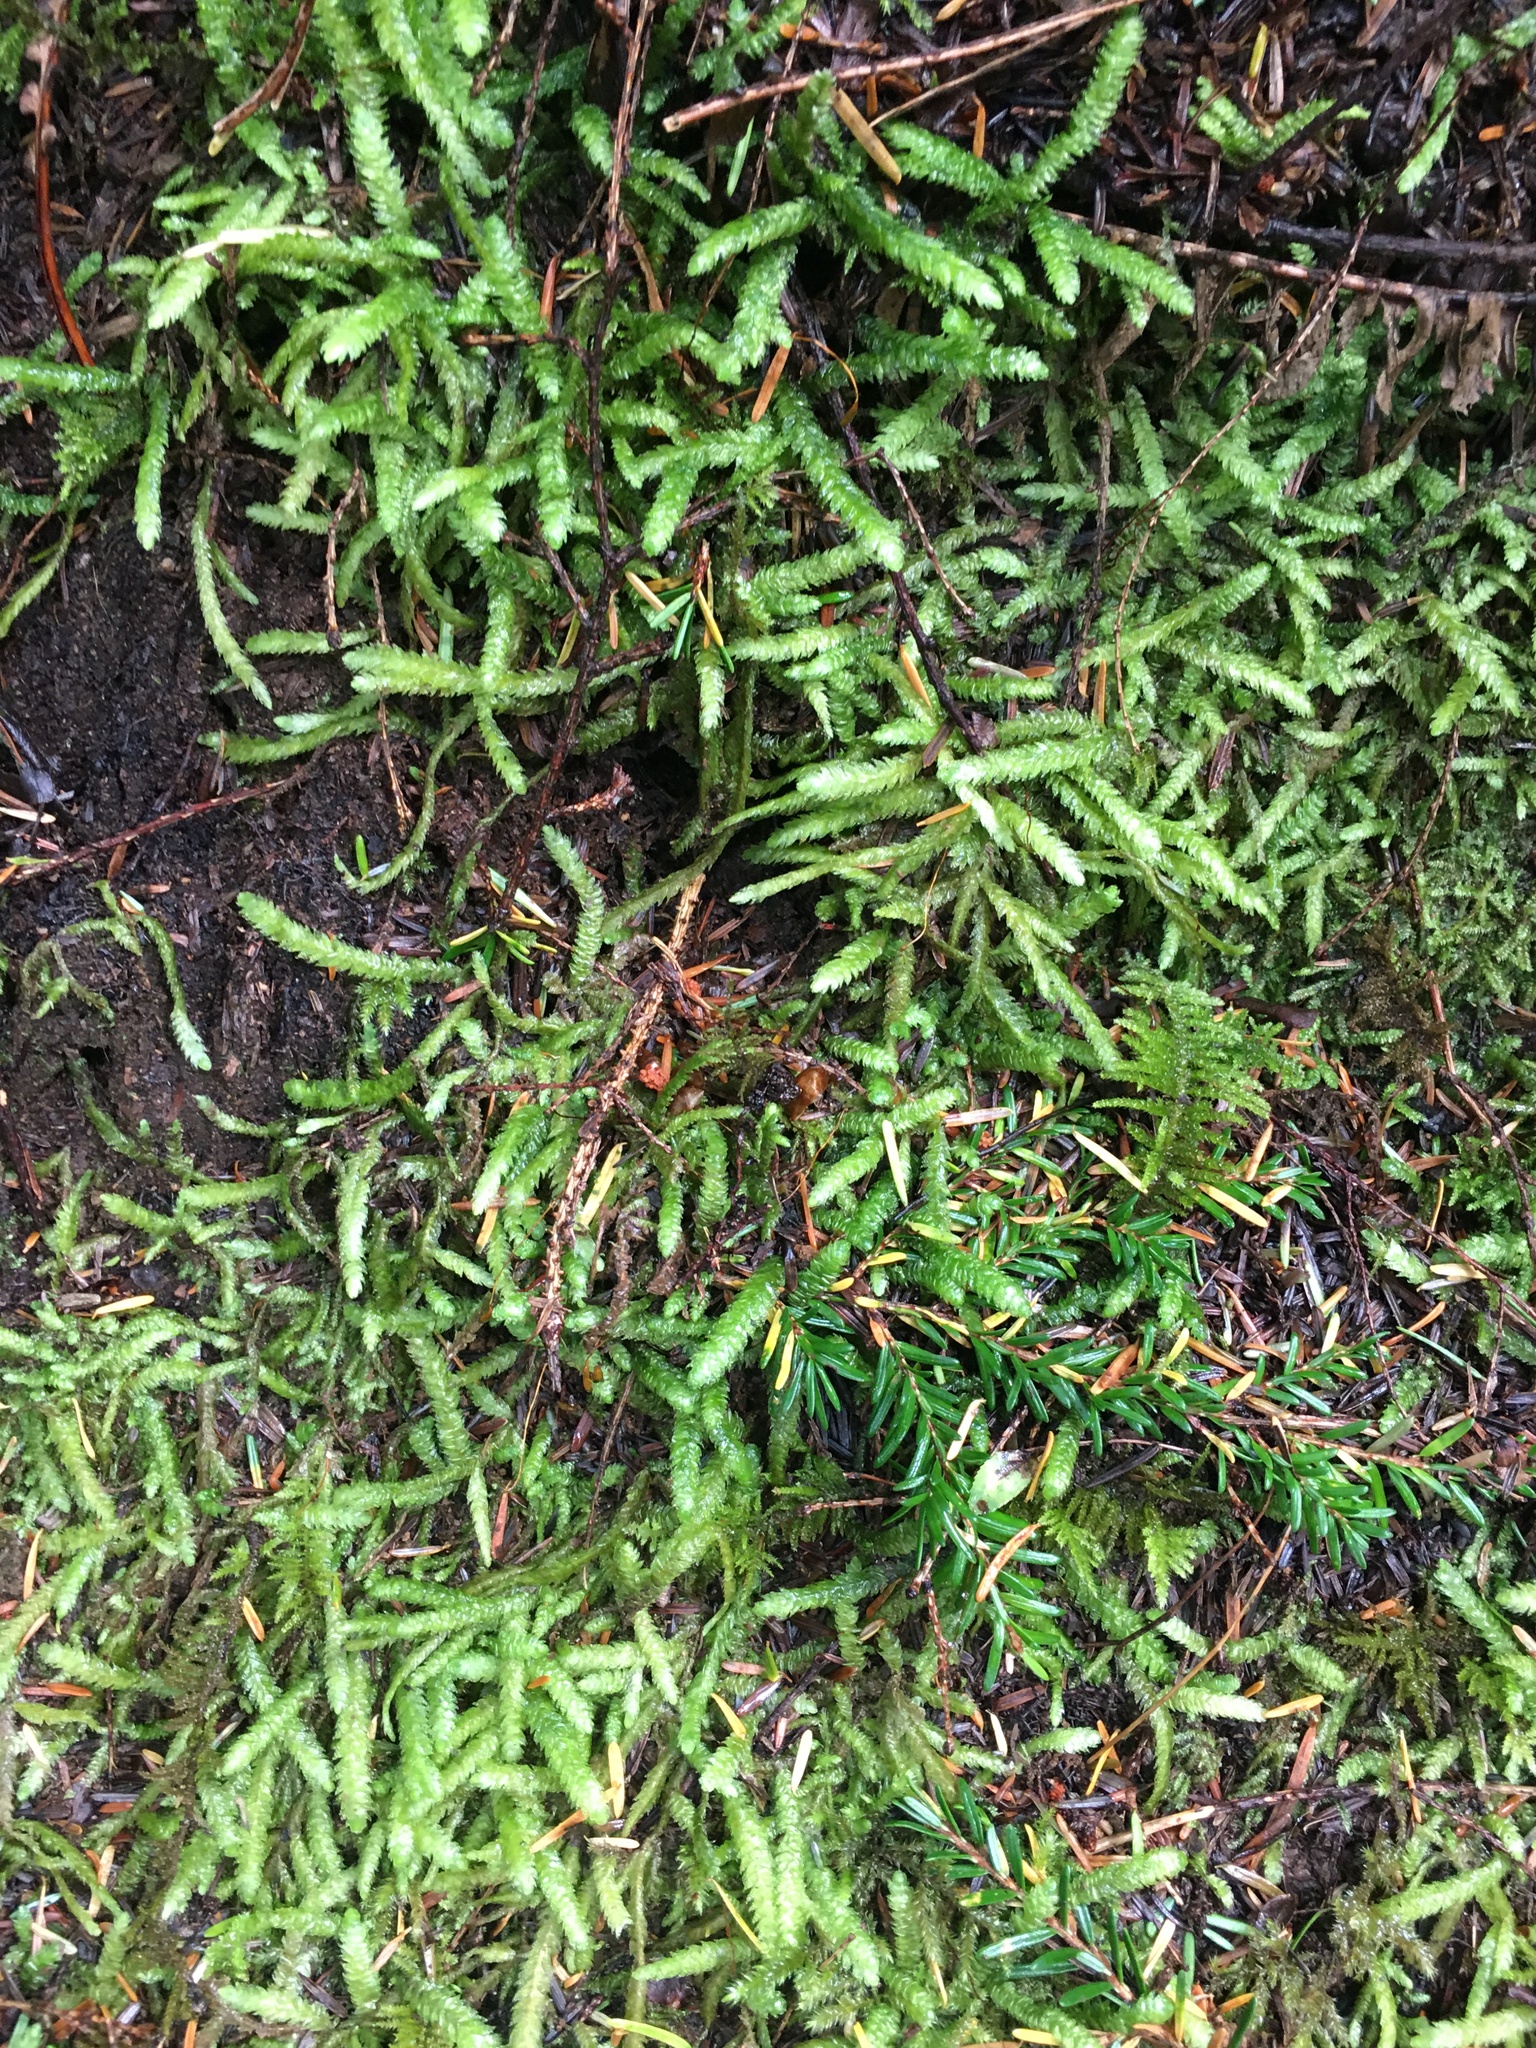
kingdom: Plantae
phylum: Bryophyta
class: Bryopsida
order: Hypnales
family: Plagiotheciaceae
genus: Plagiothecium
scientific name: Plagiothecium undulatum
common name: Waved silk-moss
